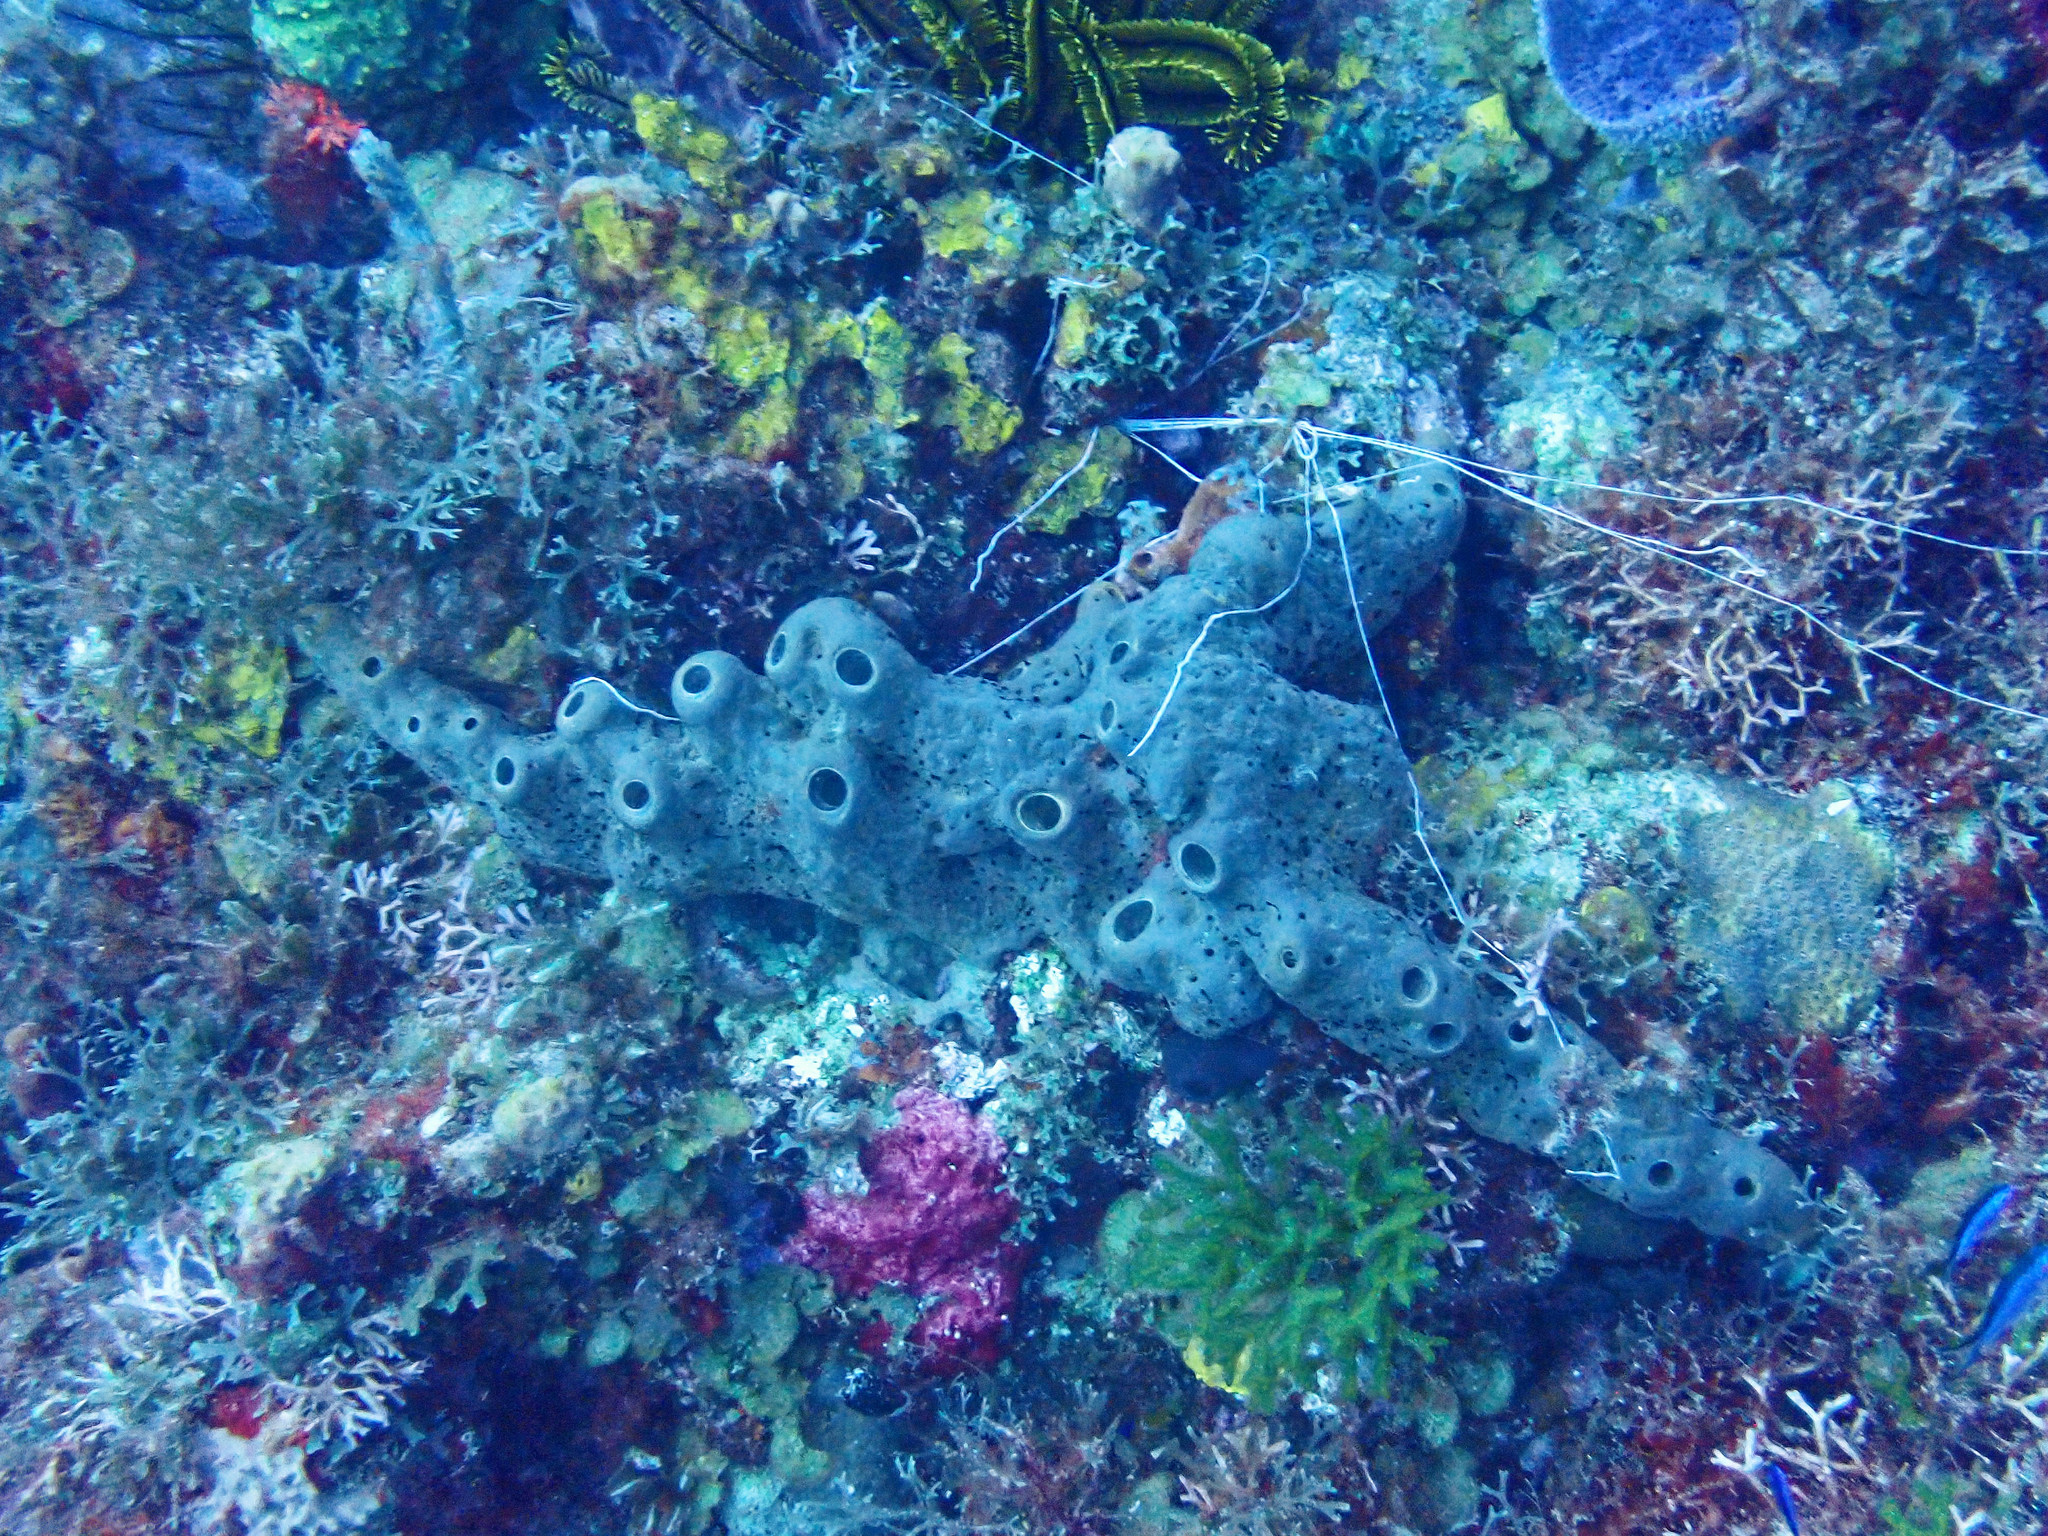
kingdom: Animalia
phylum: Porifera
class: Demospongiae
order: Agelasida
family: Agelasidae
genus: Agelas
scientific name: Agelas conifera
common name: Brown tube sponge
